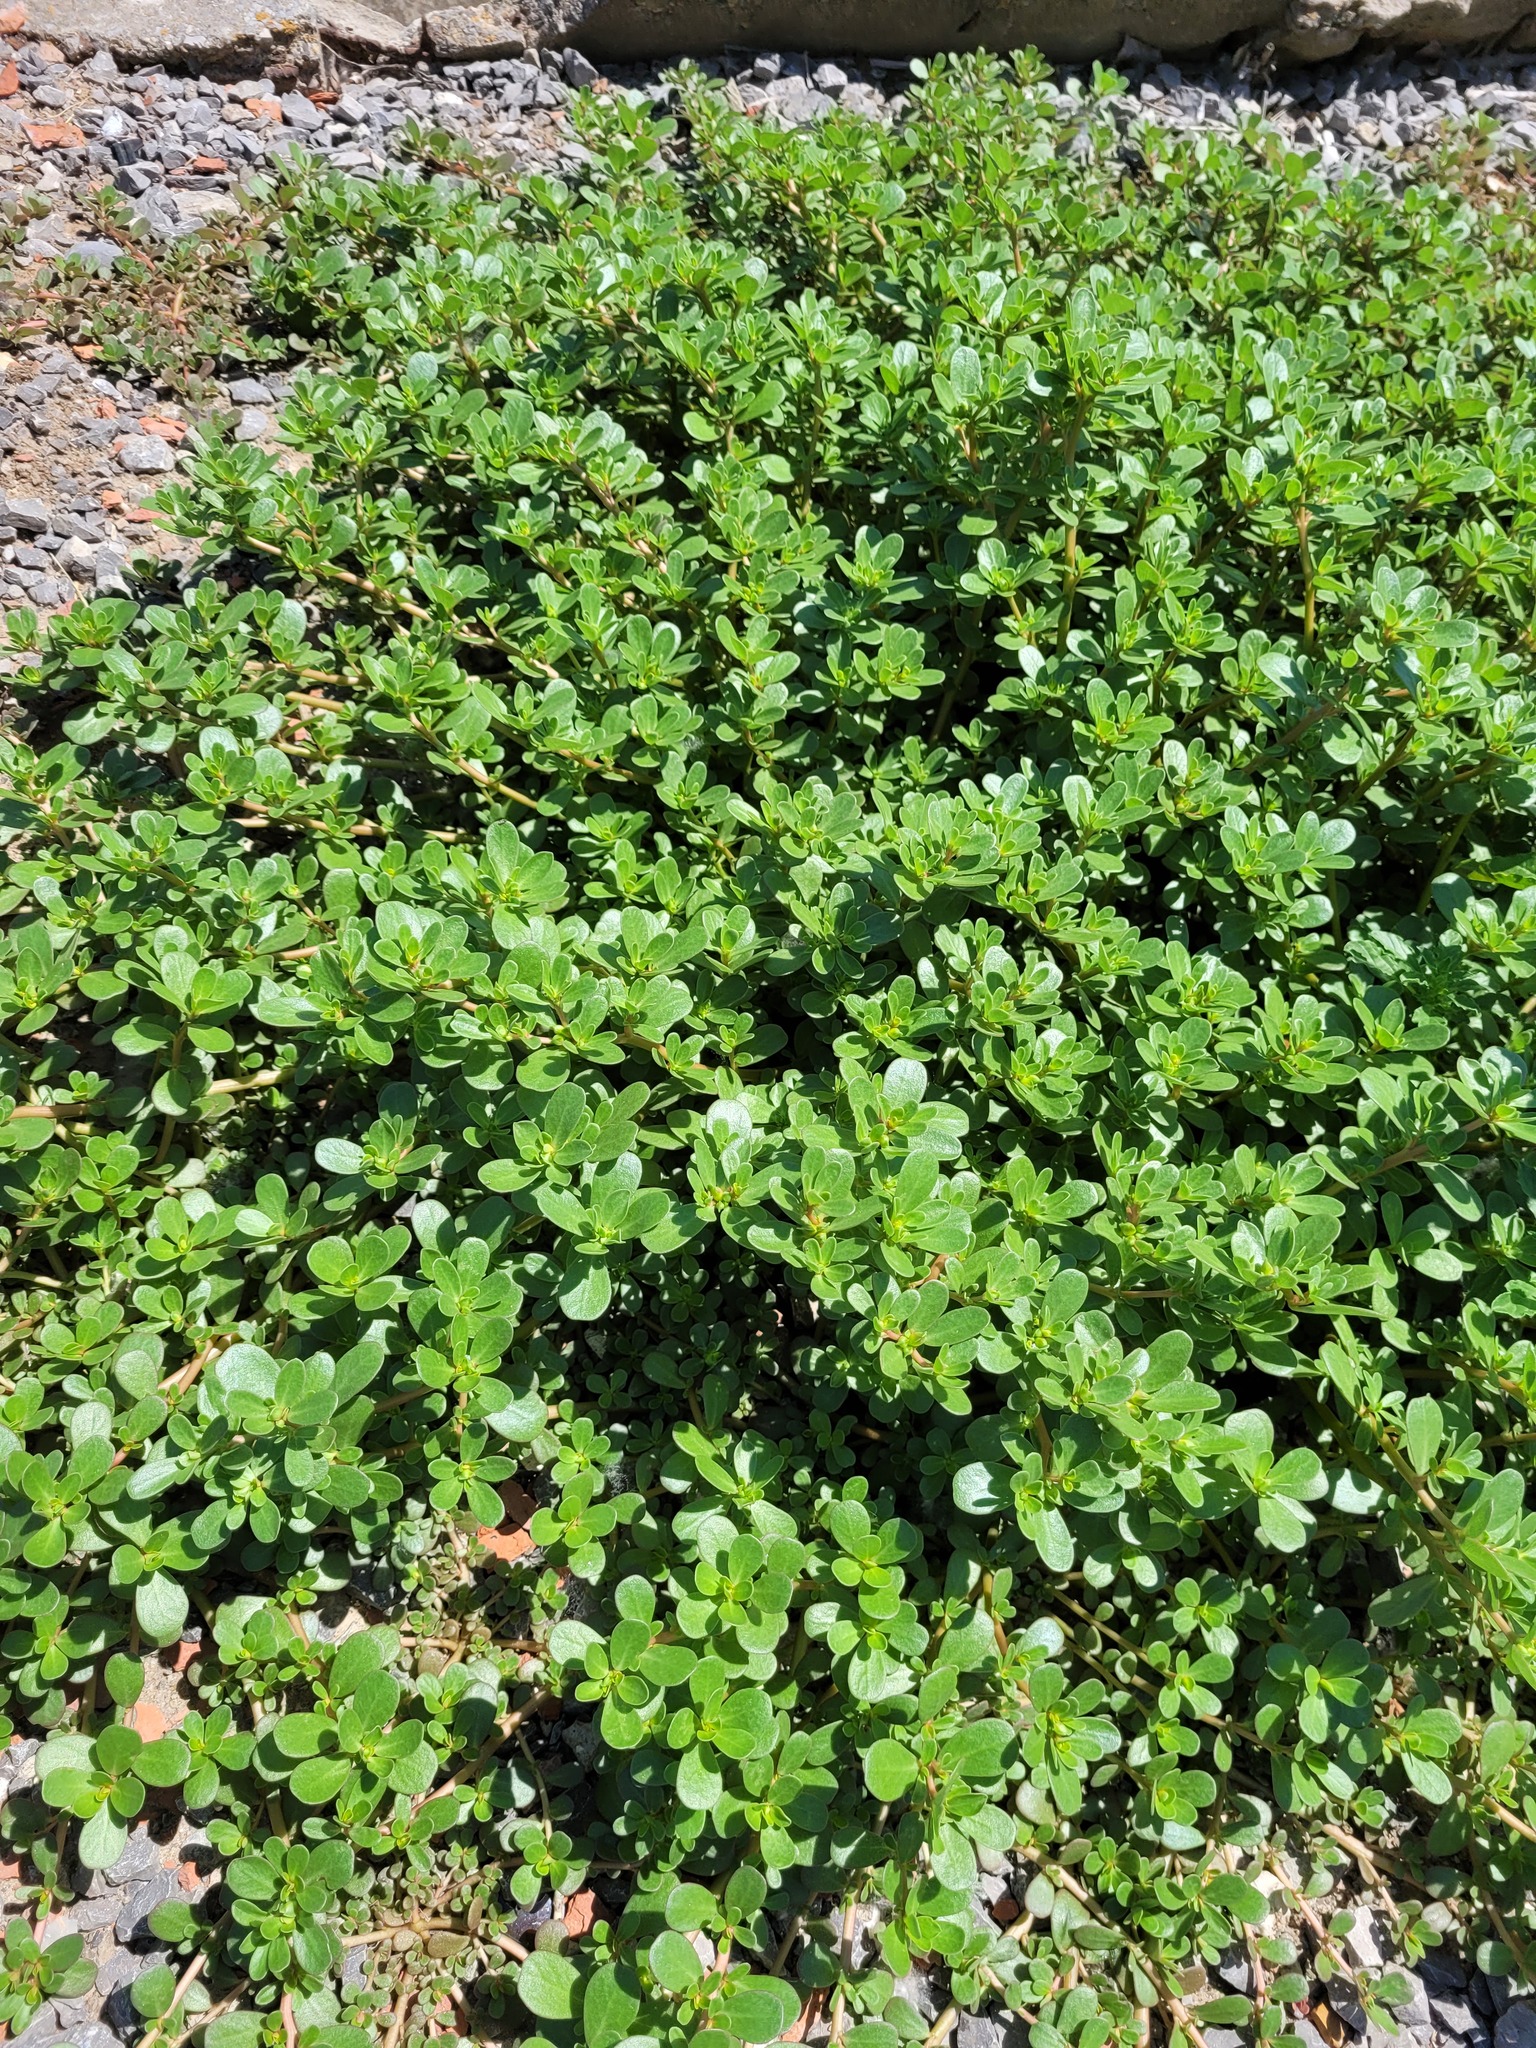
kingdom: Plantae
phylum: Tracheophyta
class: Magnoliopsida
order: Caryophyllales
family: Portulacaceae
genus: Portulaca
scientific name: Portulaca oleracea
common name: Common purslane
